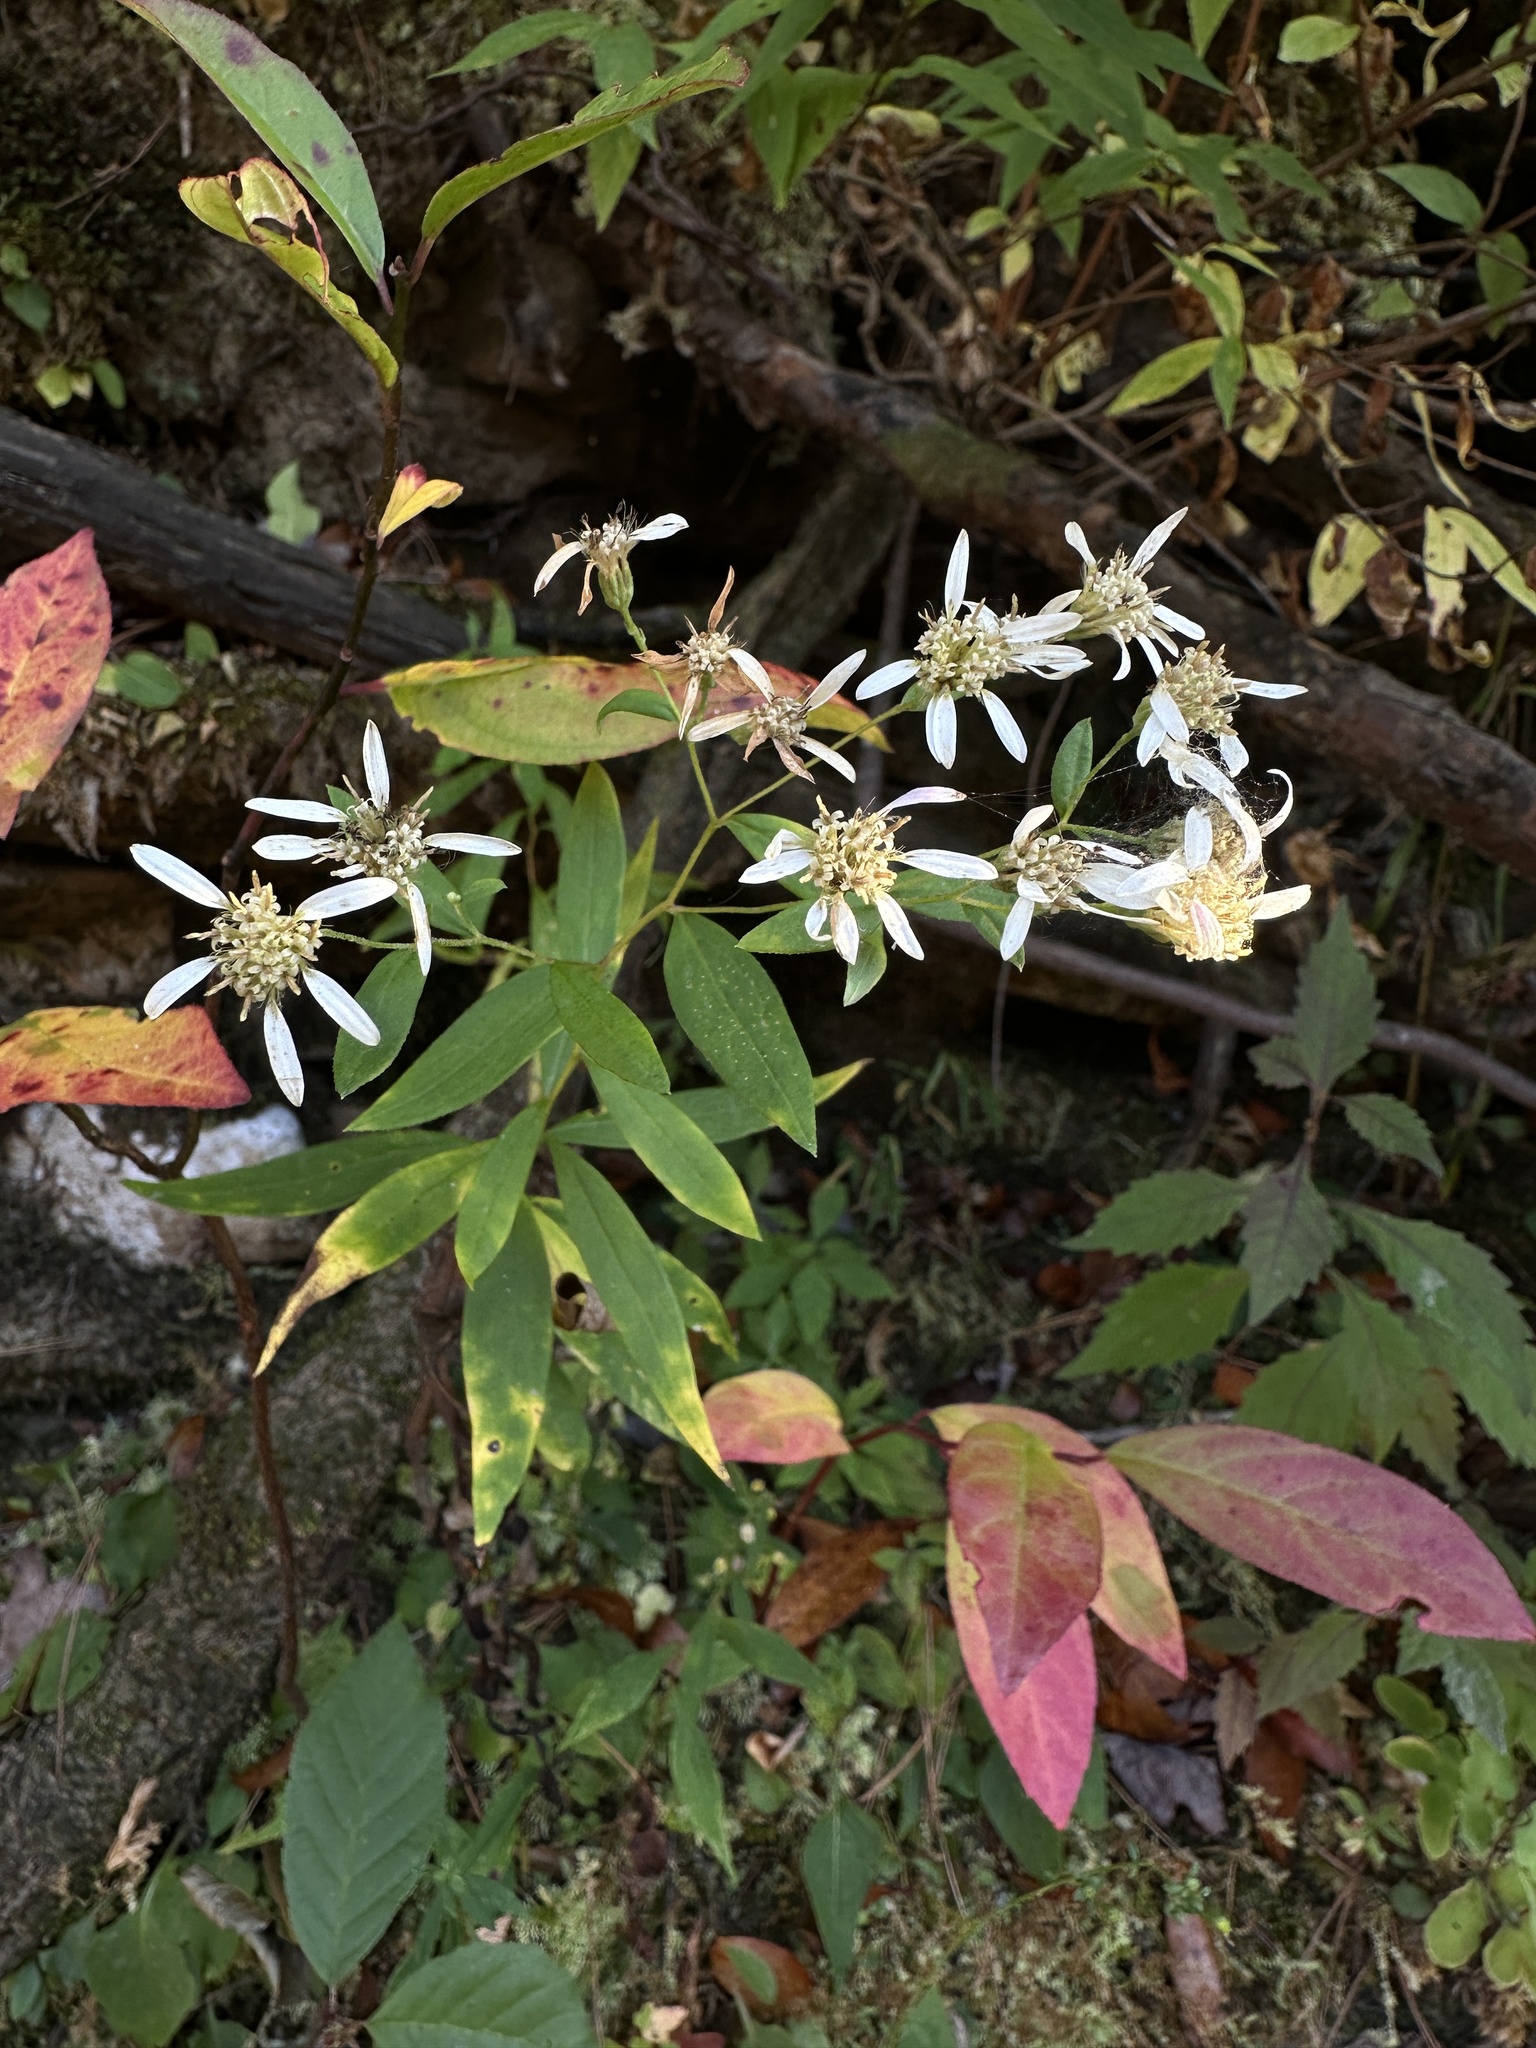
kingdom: Plantae
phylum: Tracheophyta
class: Magnoliopsida
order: Asterales
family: Asteraceae
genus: Doellingeria
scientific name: Doellingeria umbellata
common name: Flat-top white aster
